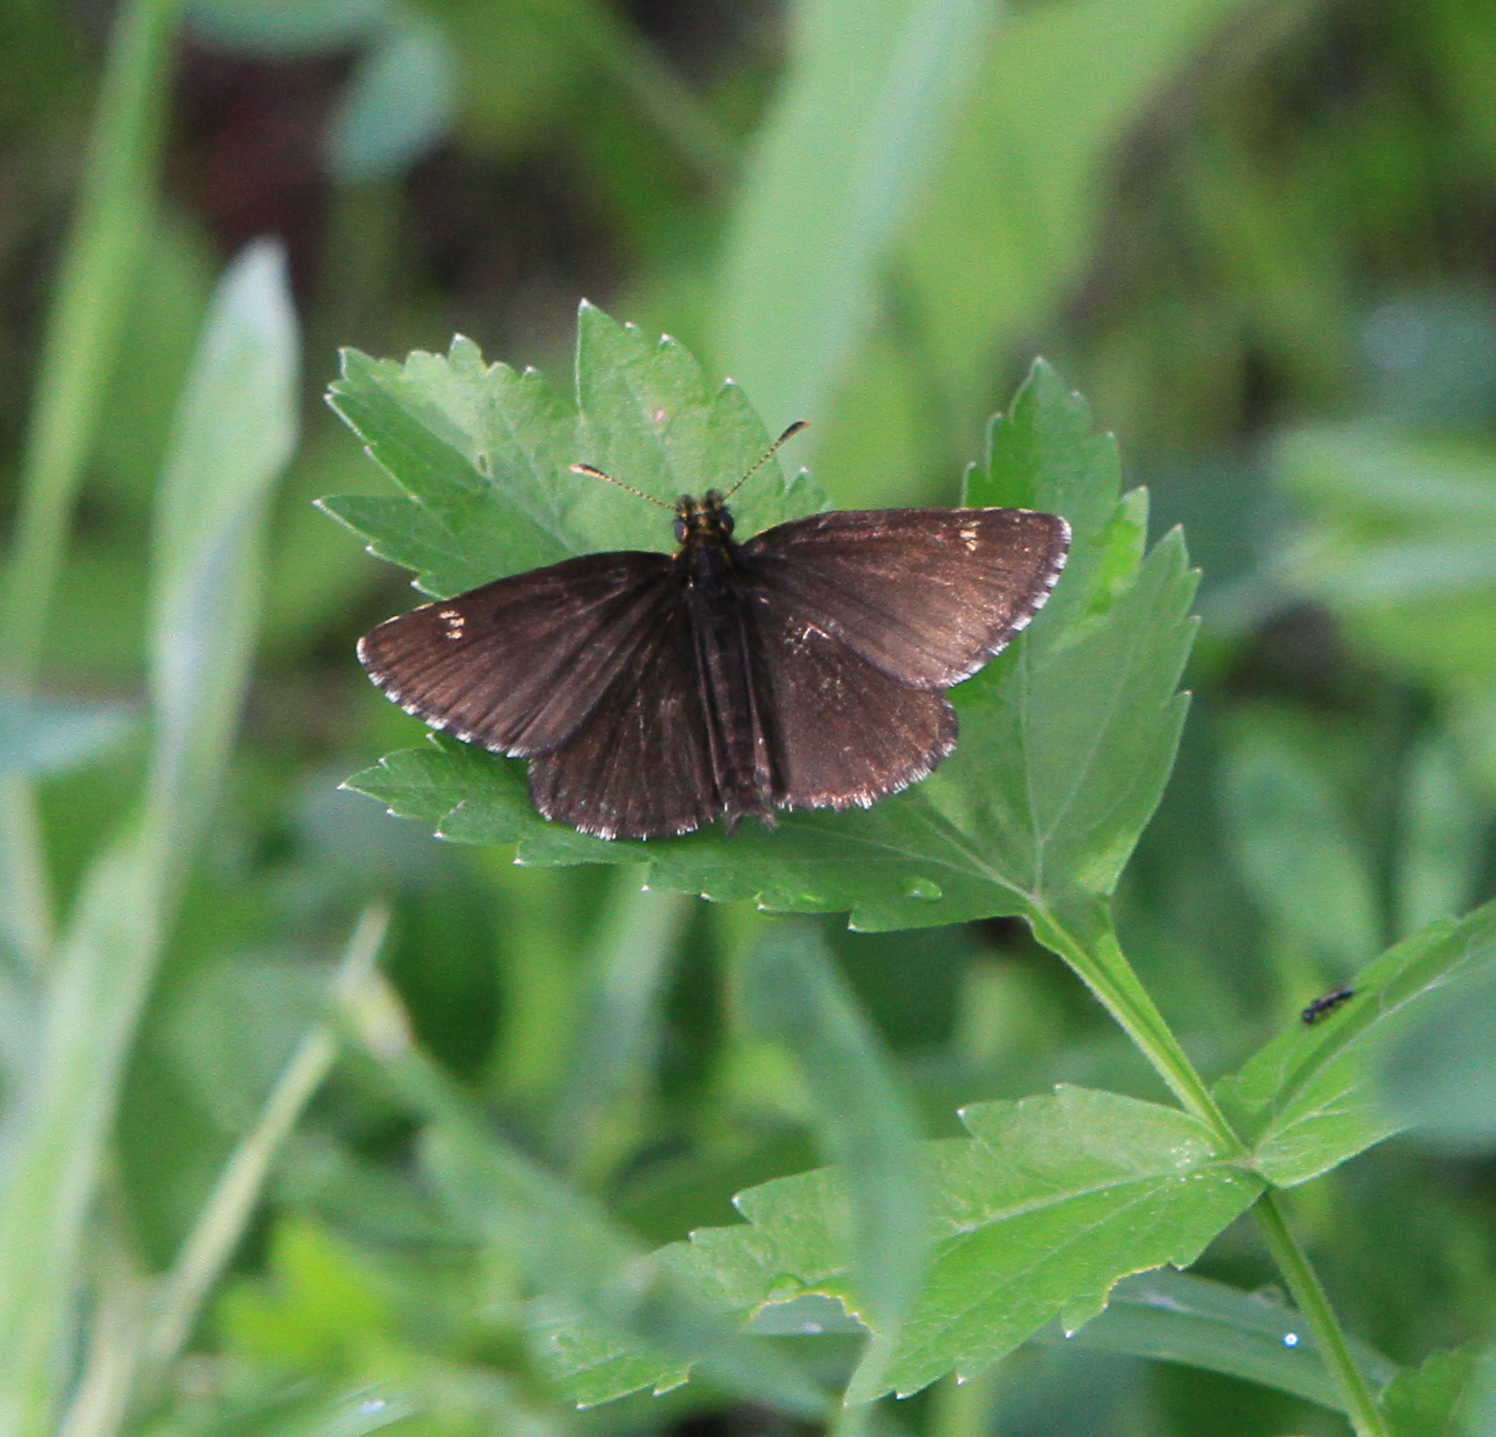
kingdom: Animalia
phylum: Arthropoda
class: Insecta
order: Lepidoptera
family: Hesperiidae
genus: Heteropterus
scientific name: Heteropterus morpheus
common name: Large chequered skipper
